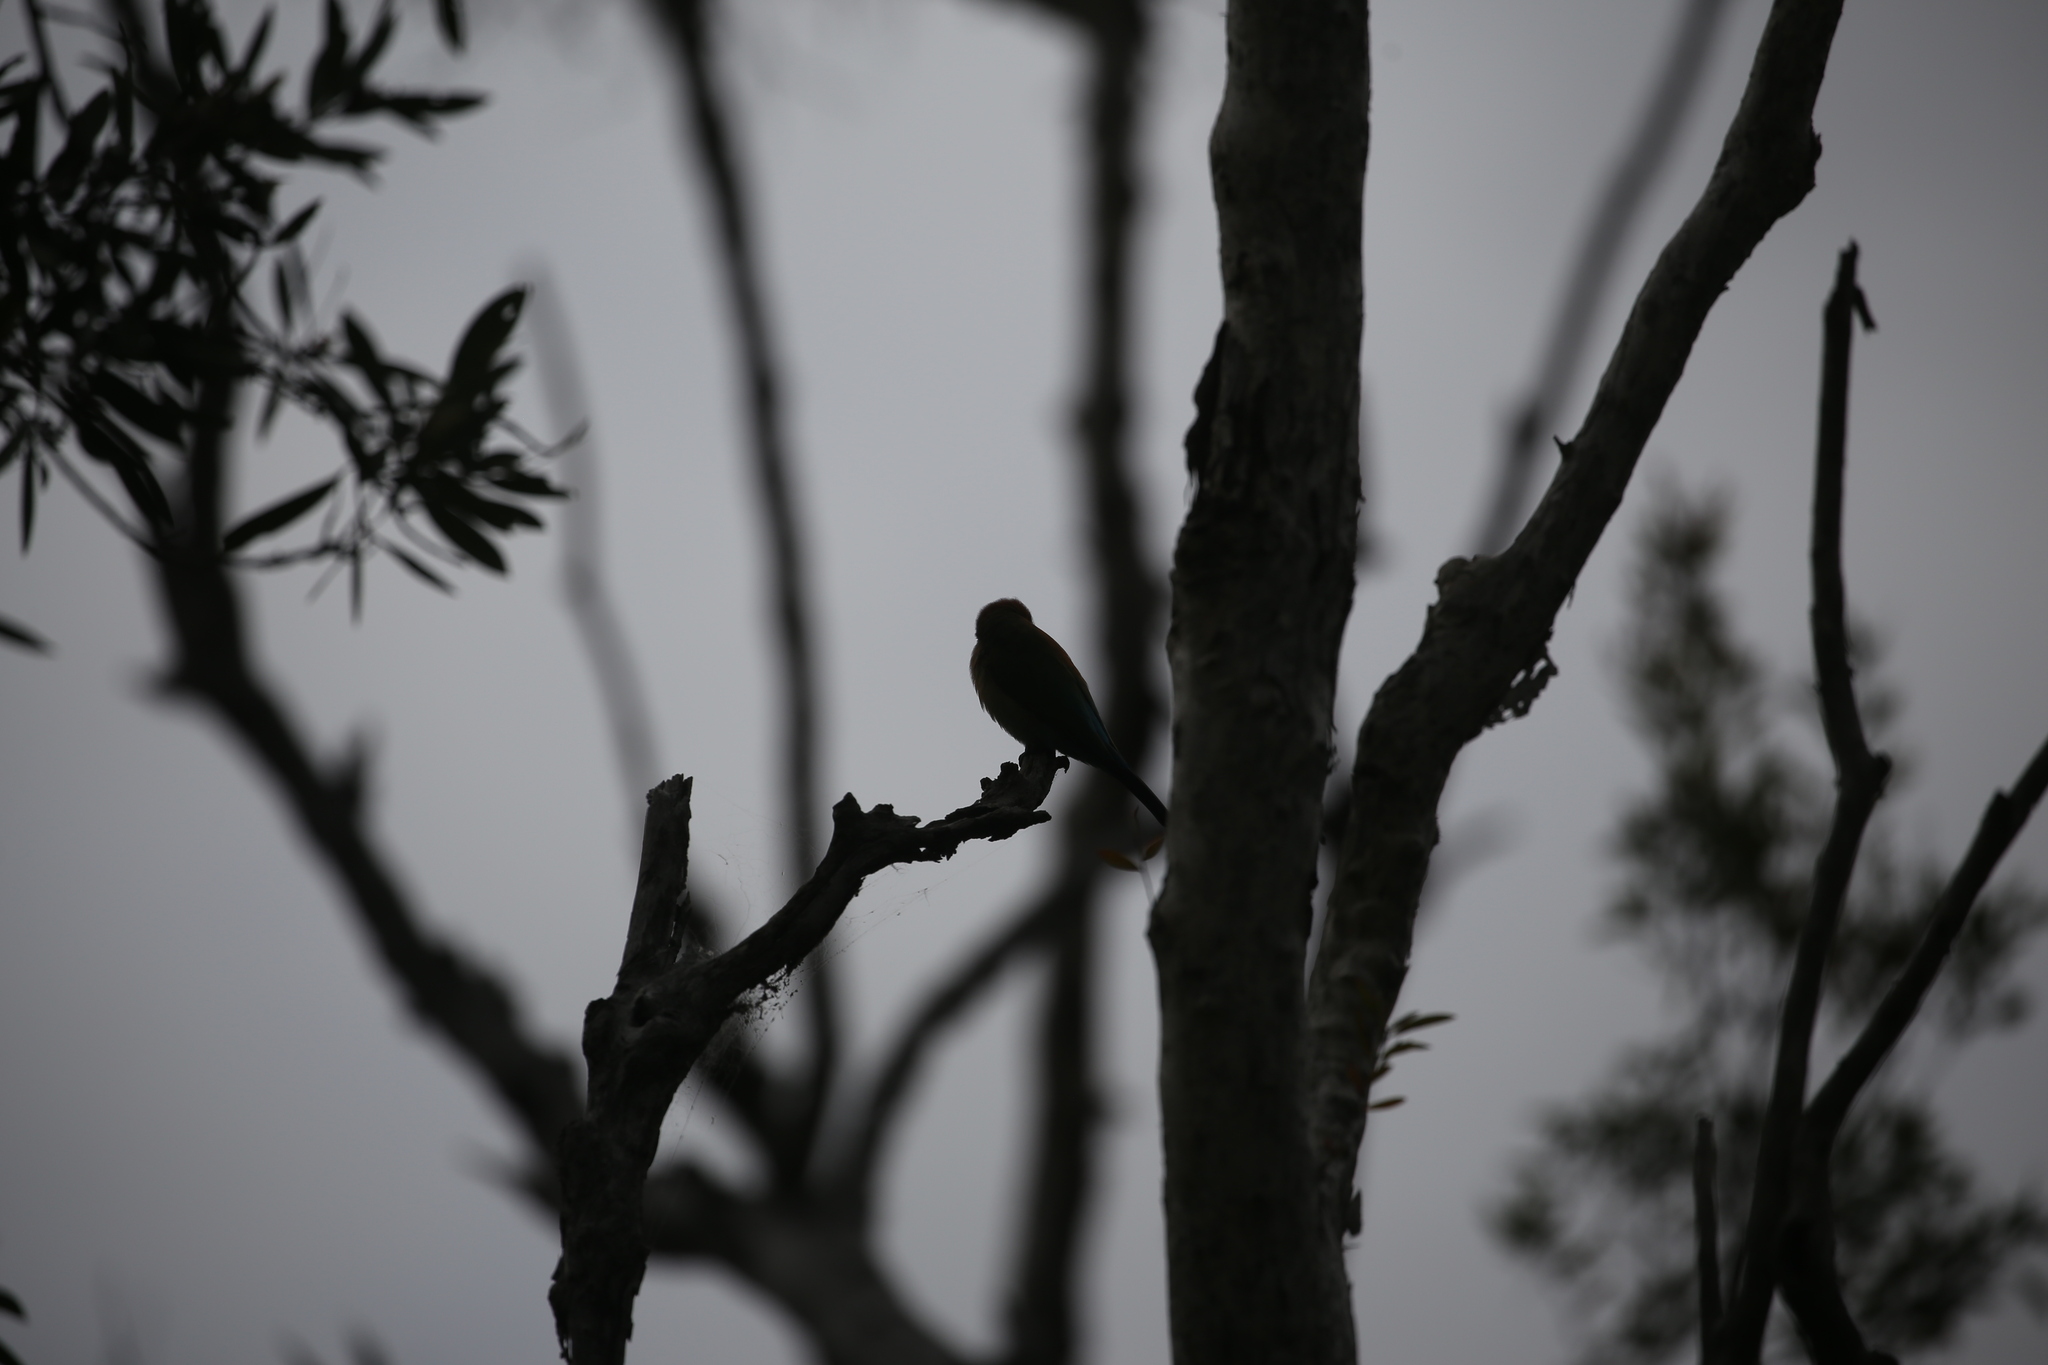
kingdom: Animalia
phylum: Chordata
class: Aves
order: Coraciiformes
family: Meropidae
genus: Merops
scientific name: Merops ornatus
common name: Rainbow bee-eater
